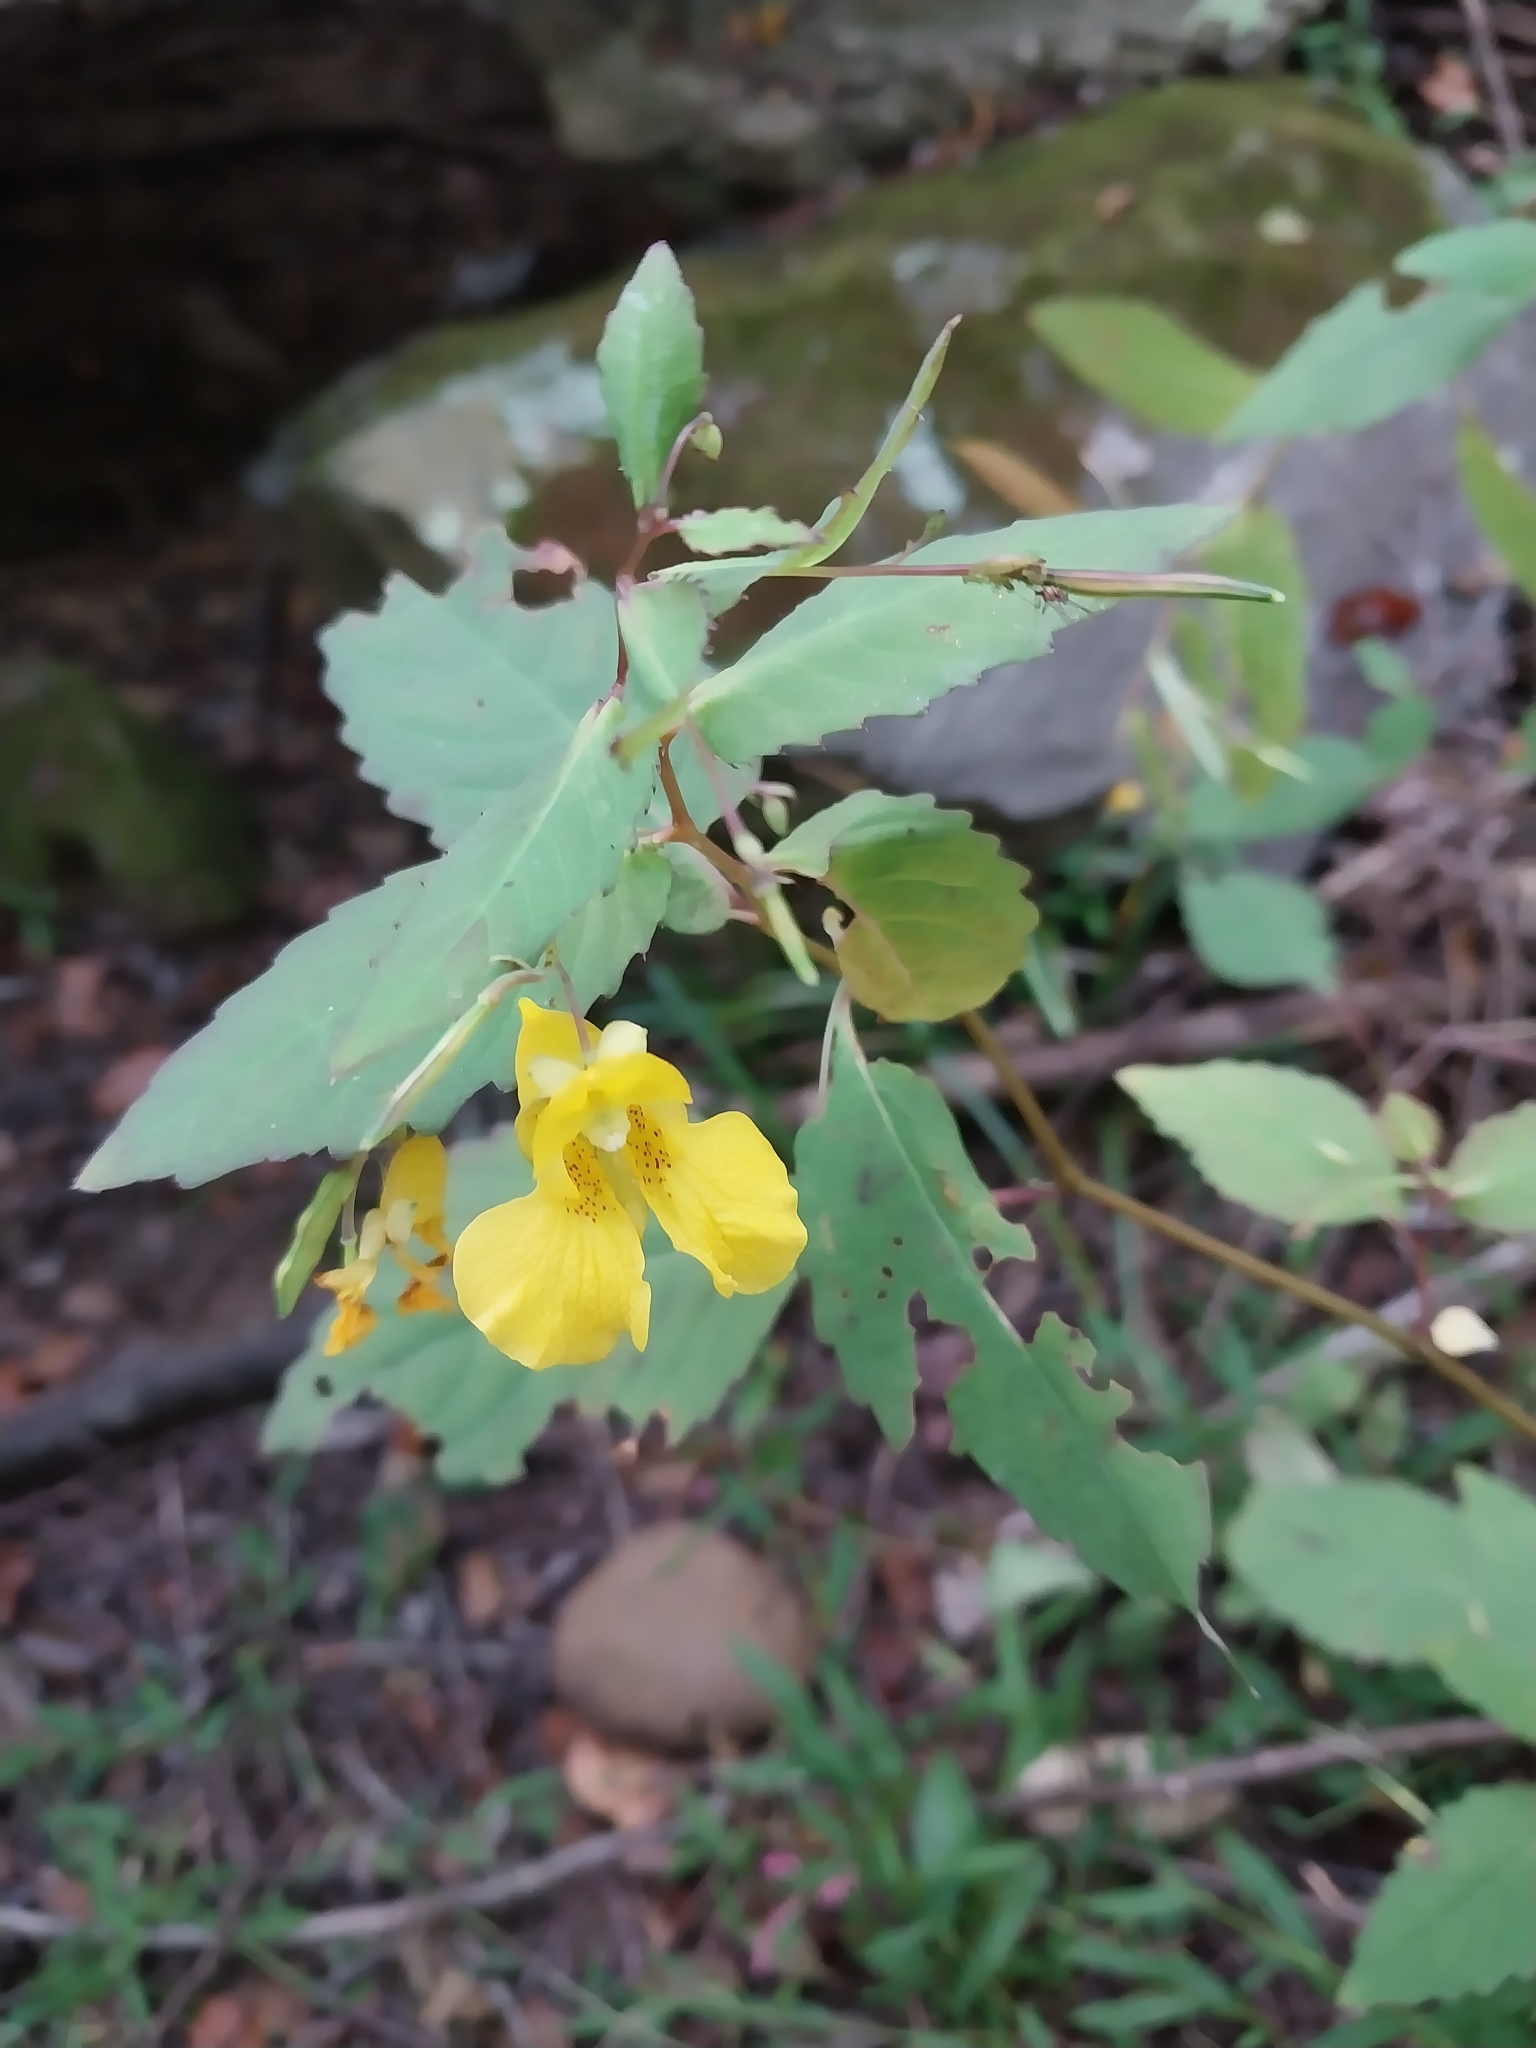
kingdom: Plantae
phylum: Tracheophyta
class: Magnoliopsida
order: Ericales
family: Balsaminaceae
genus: Impatiens
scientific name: Impatiens pallida
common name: Pale snapweed
